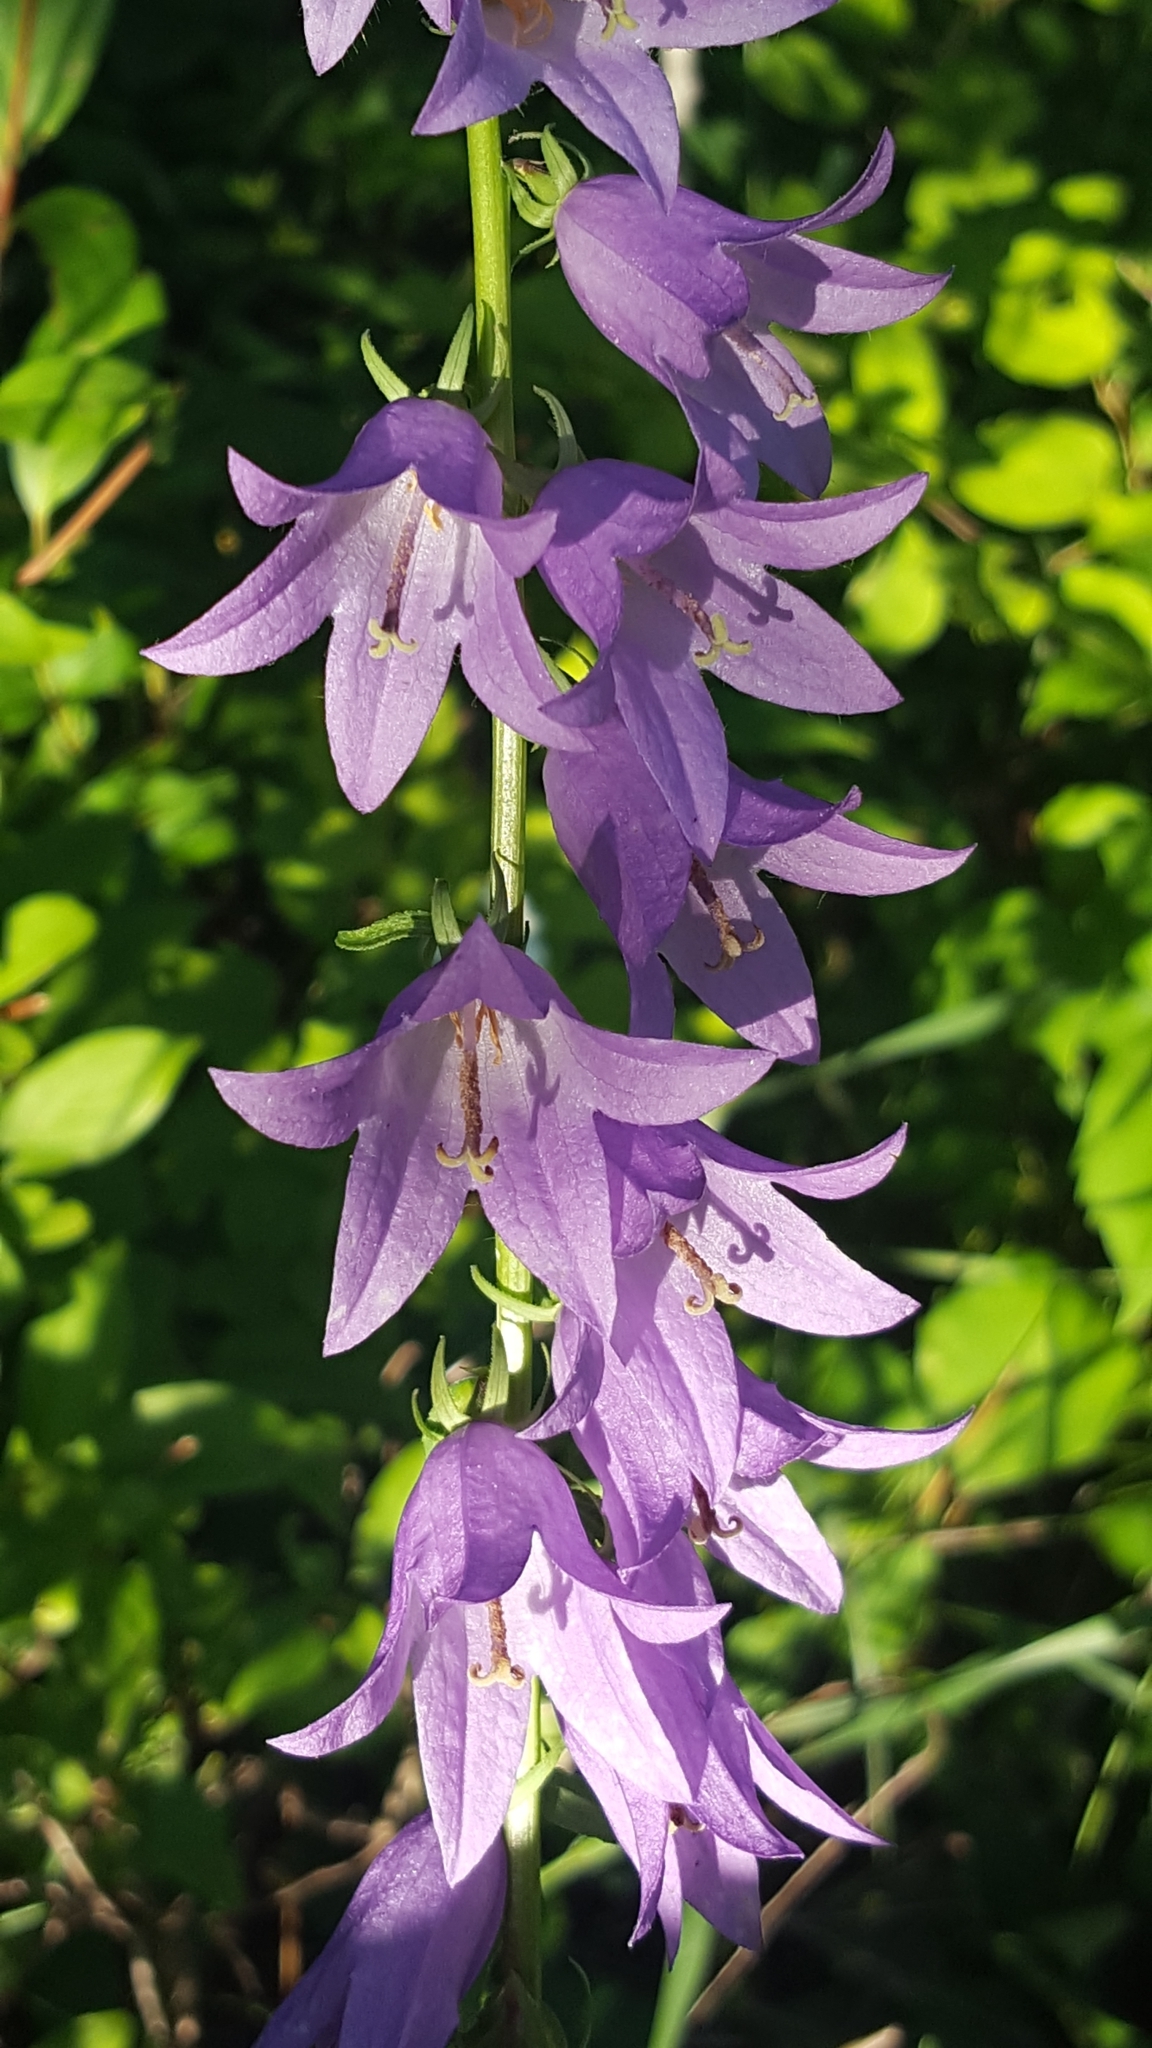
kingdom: Plantae
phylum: Tracheophyta
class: Magnoliopsida
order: Asterales
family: Campanulaceae
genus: Campanula
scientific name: Campanula rapunculoides
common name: Creeping bellflower
